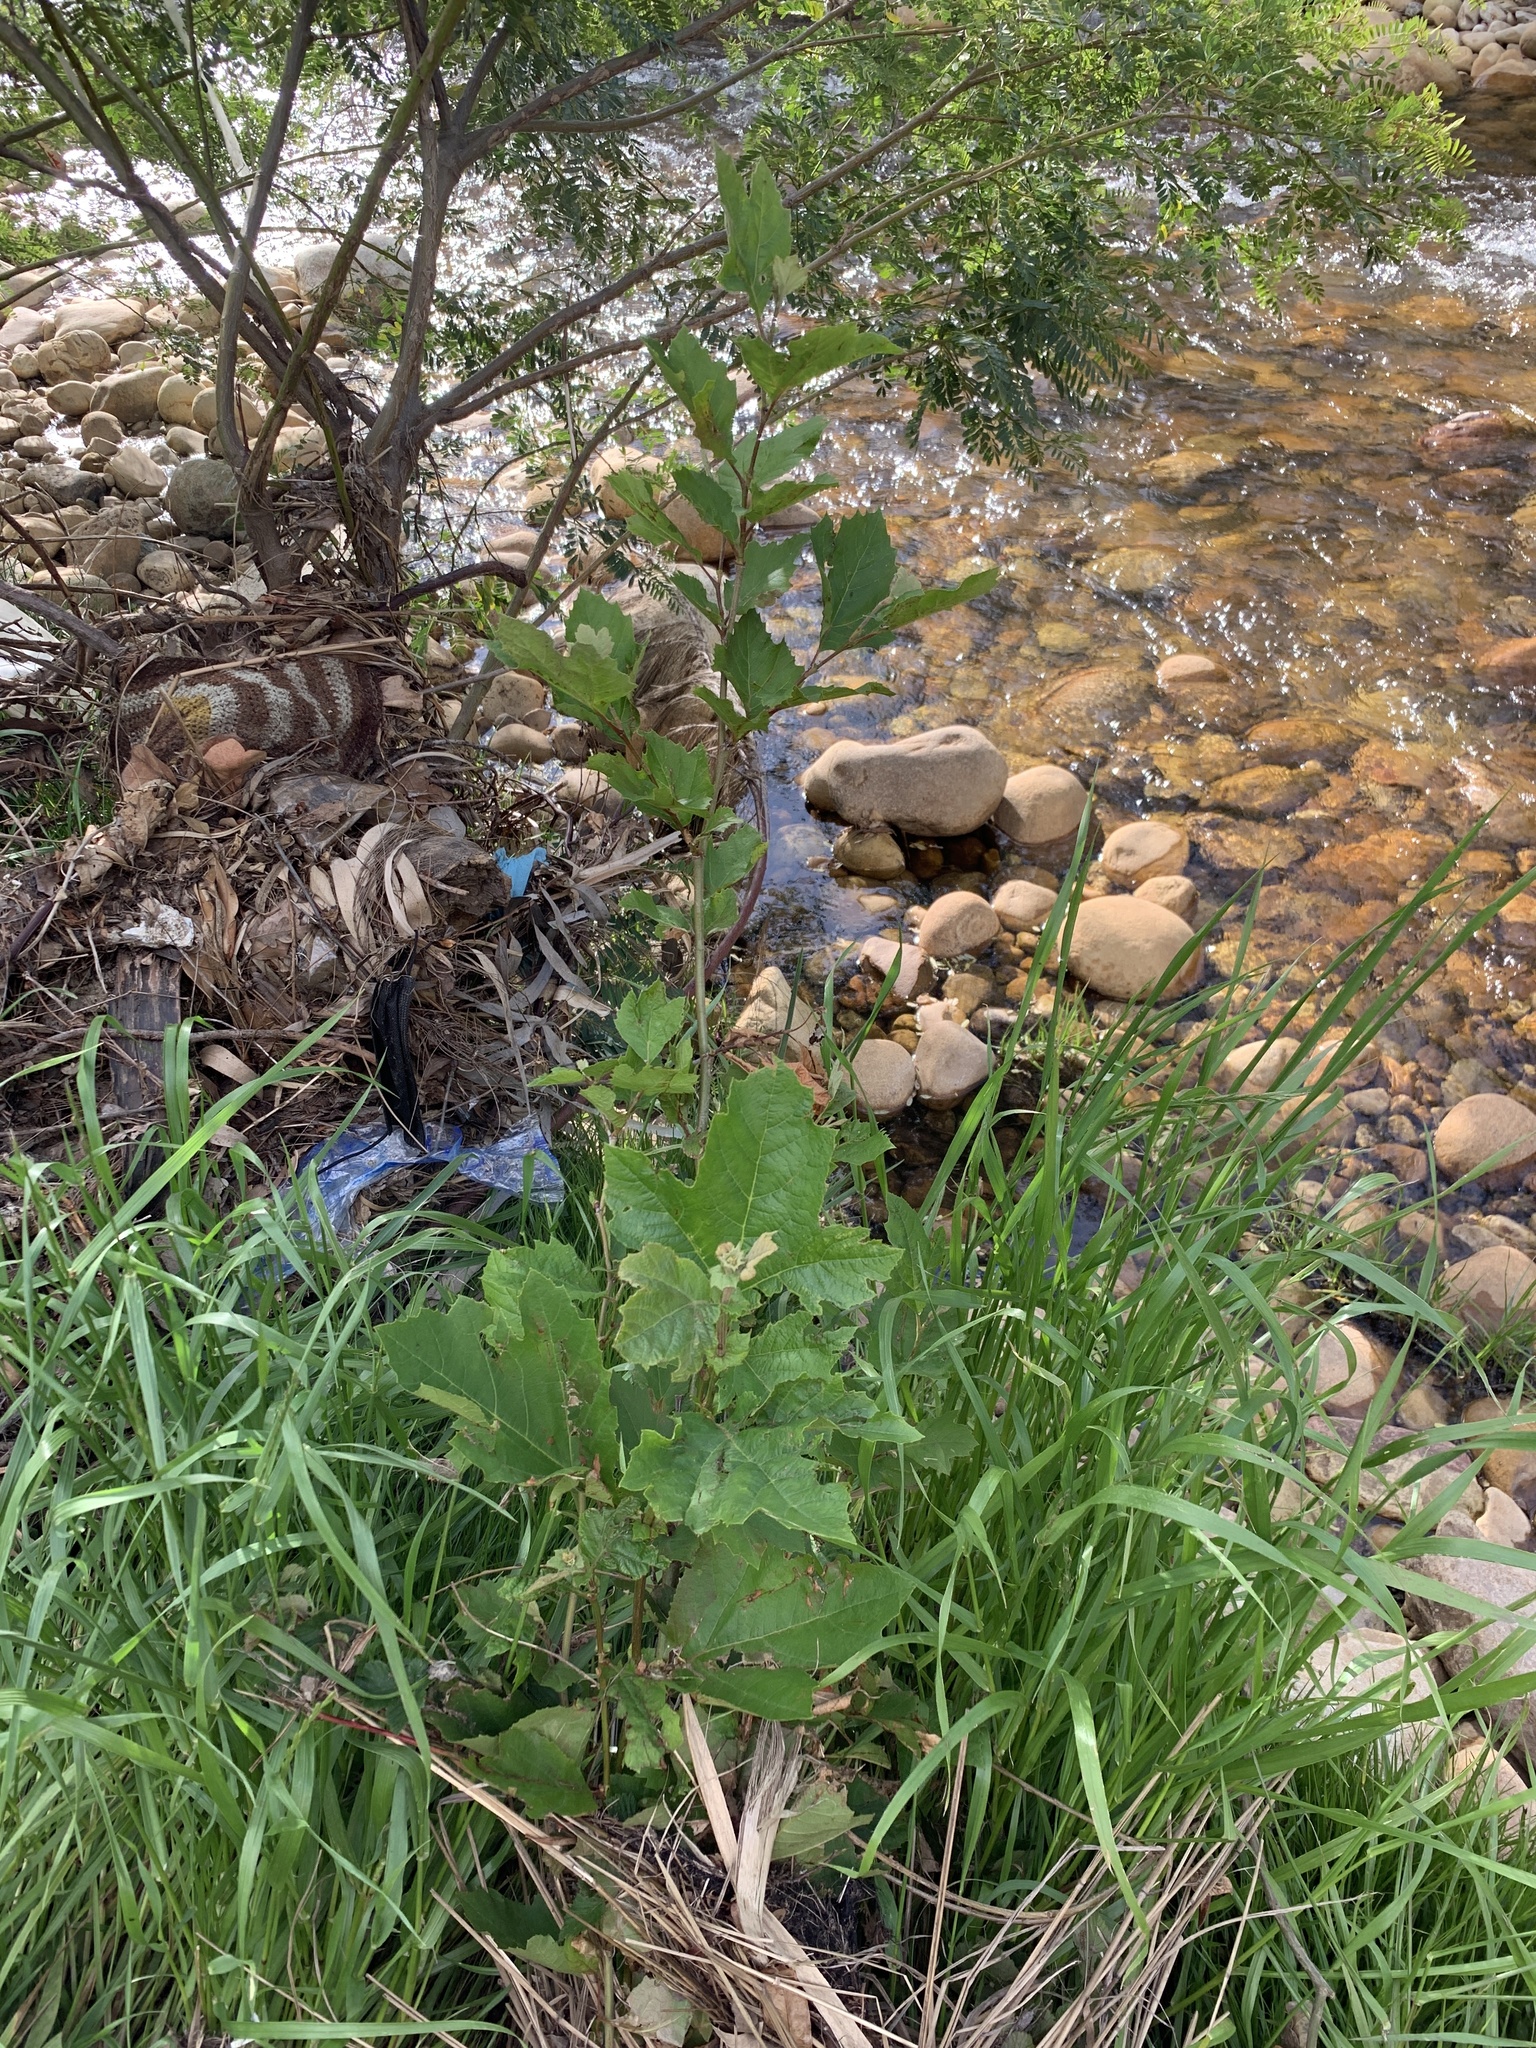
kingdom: Plantae
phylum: Tracheophyta
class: Magnoliopsida
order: Proteales
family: Platanaceae
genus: Platanus
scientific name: Platanus hispanica
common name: London plane
